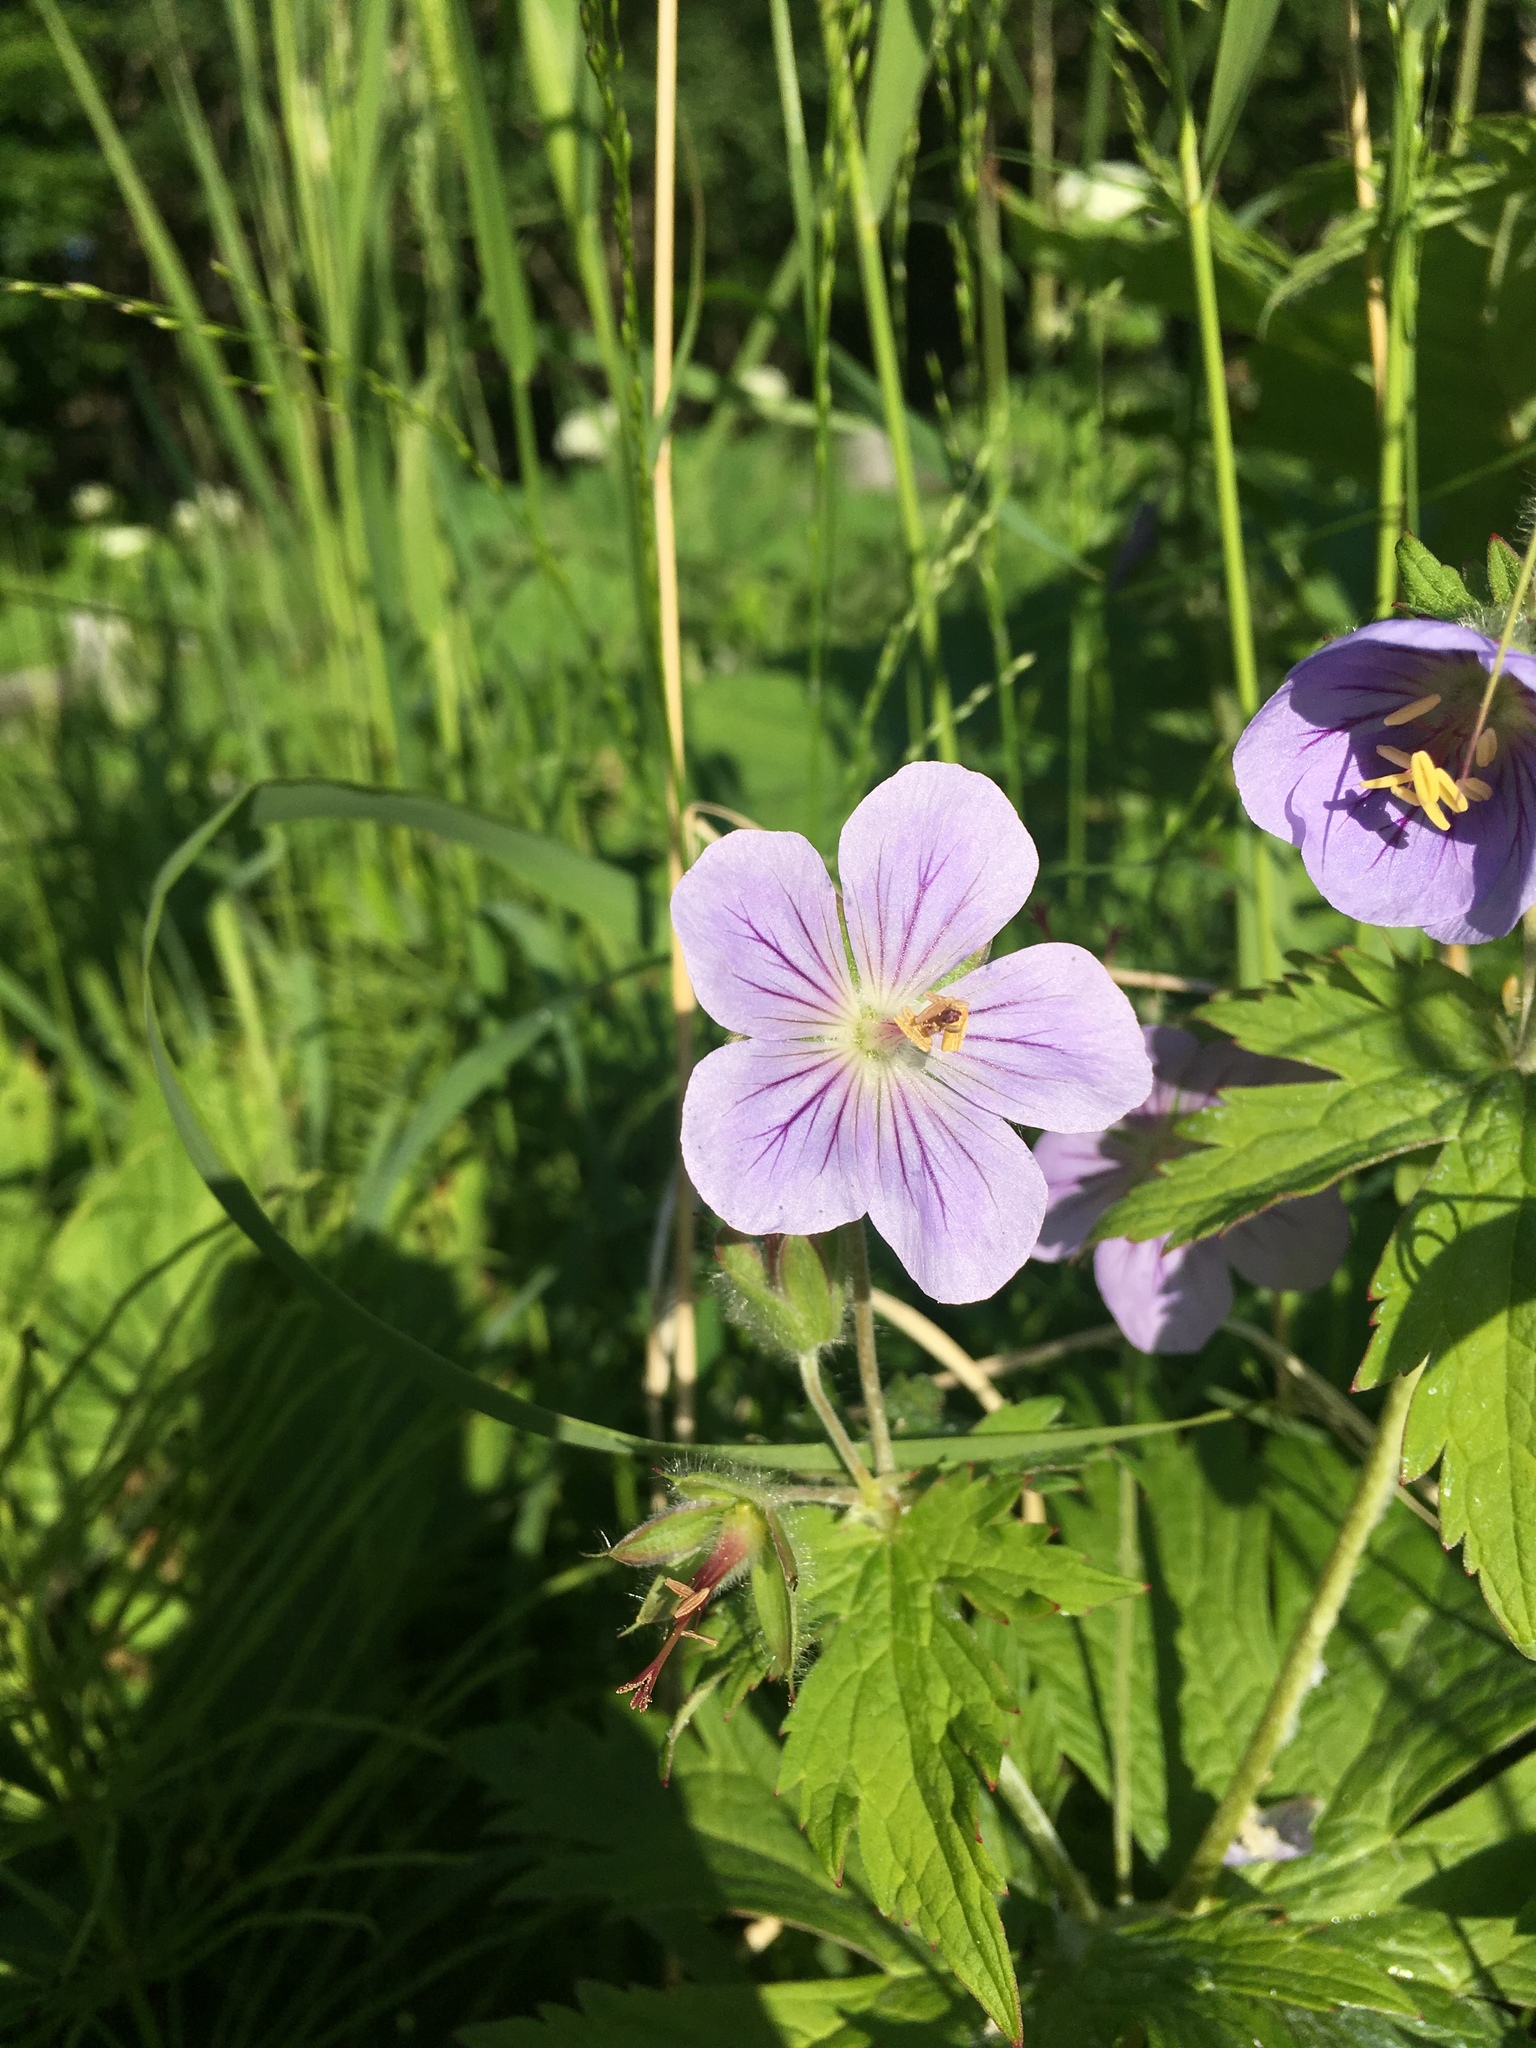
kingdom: Plantae
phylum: Tracheophyta
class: Magnoliopsida
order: Geraniales
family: Geraniaceae
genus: Geranium
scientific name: Geranium erianthum
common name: Northern crane's-bill
